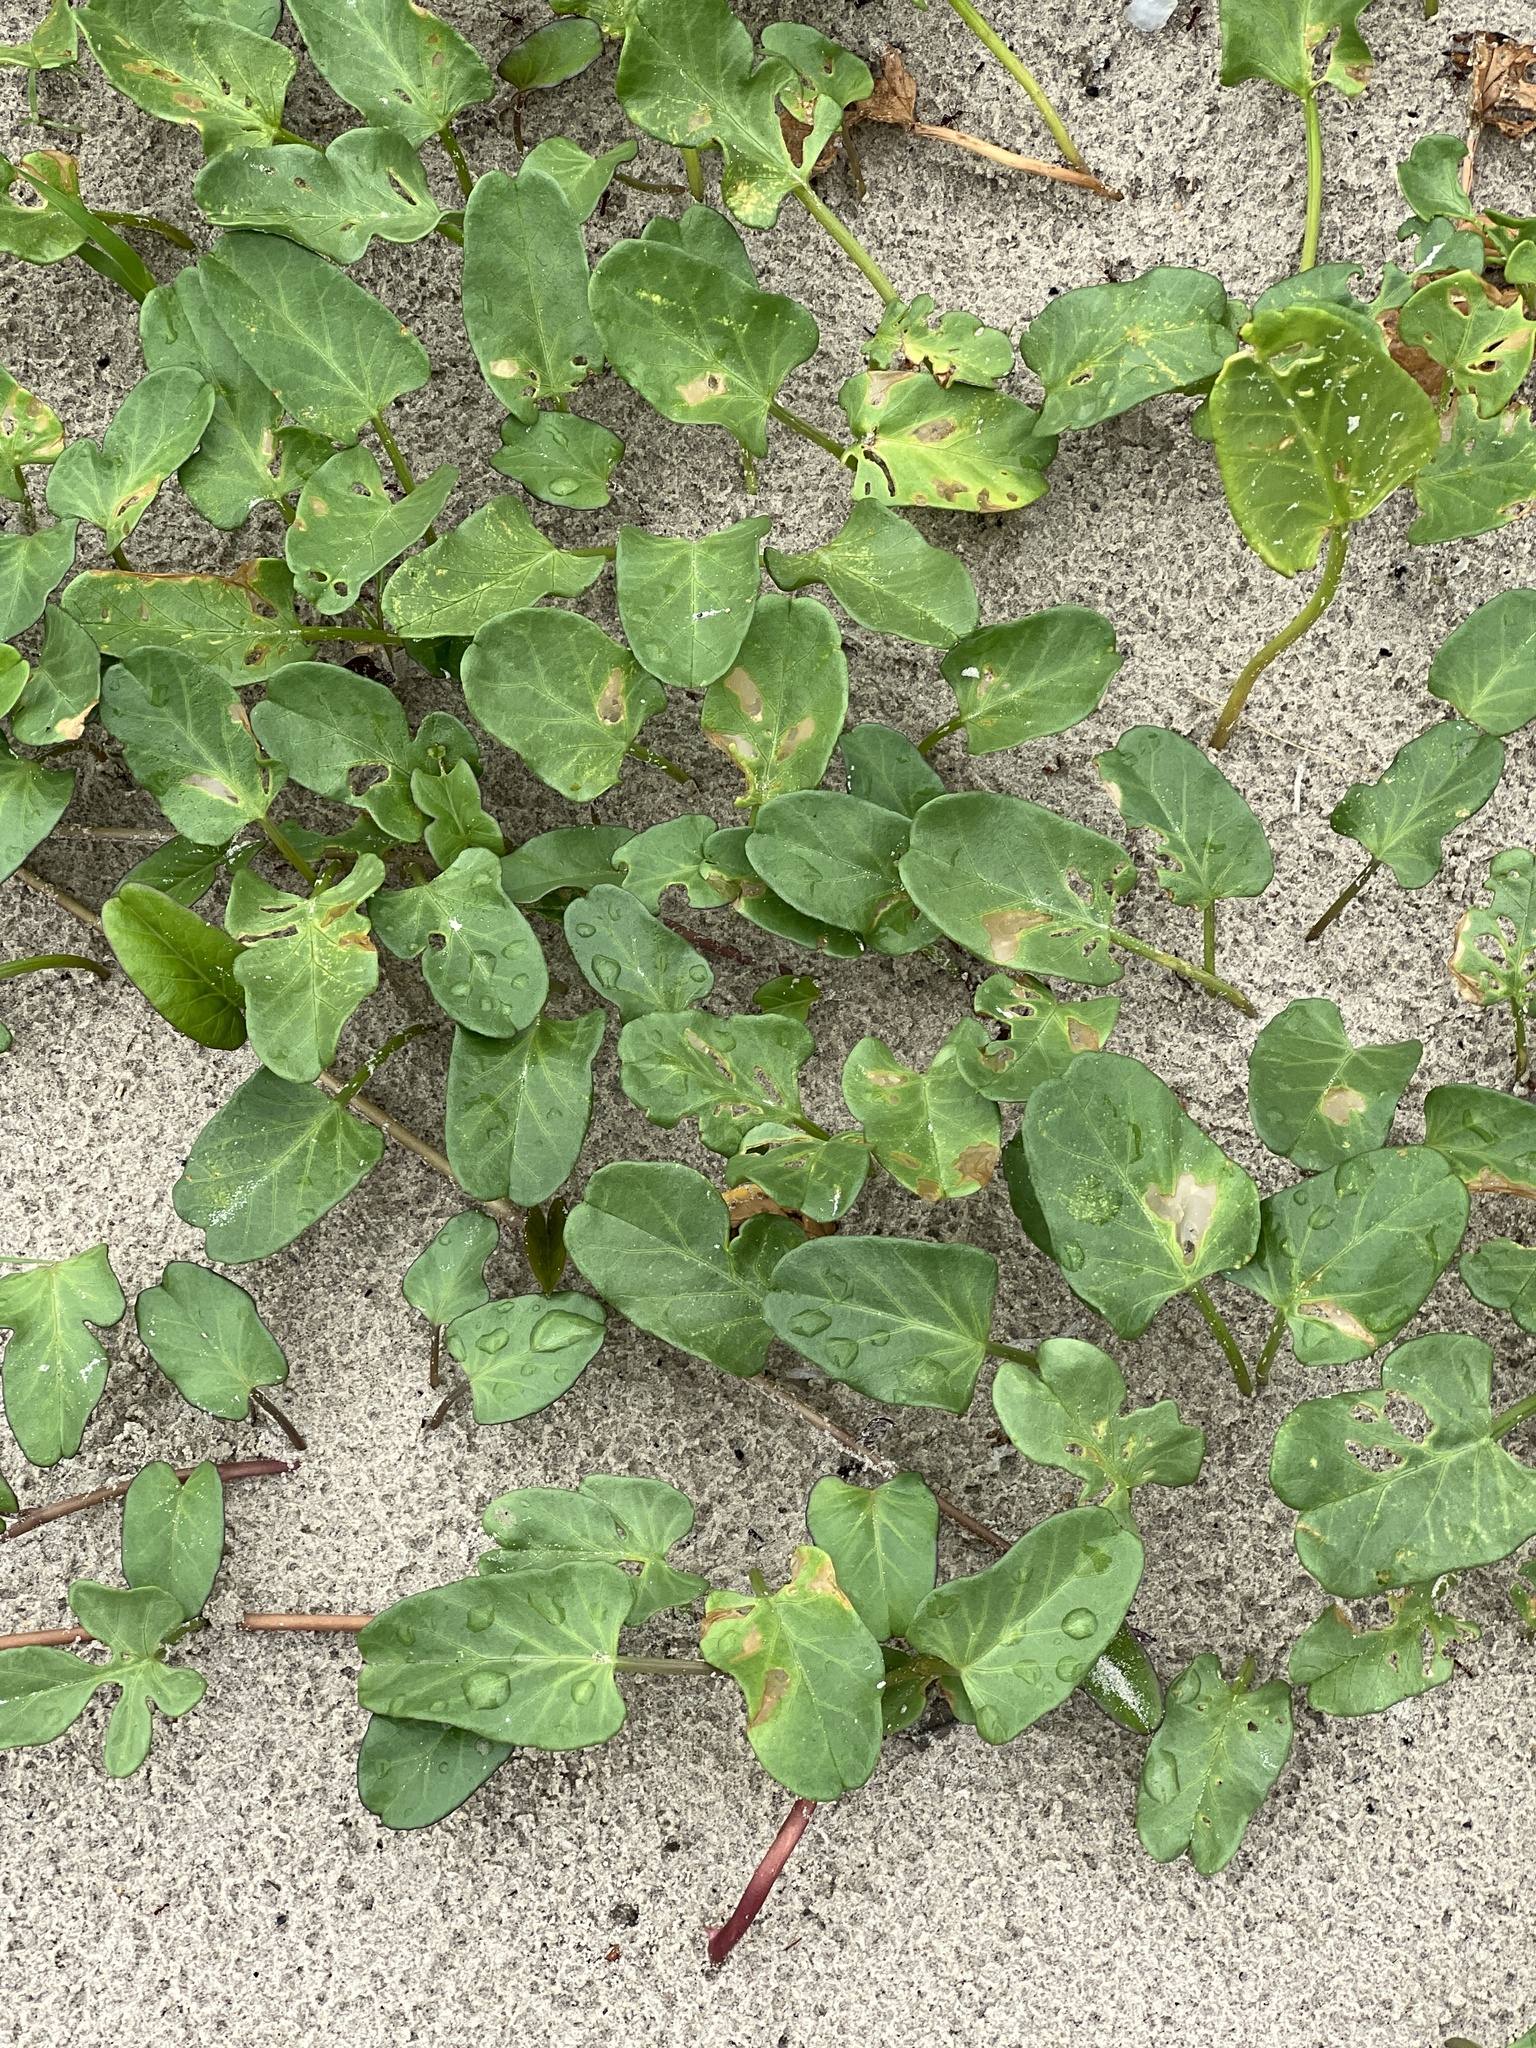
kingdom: Plantae
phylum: Tracheophyta
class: Magnoliopsida
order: Solanales
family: Convolvulaceae
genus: Ipomoea
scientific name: Ipomoea imperati
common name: Fiddle-leaf morning-glory
